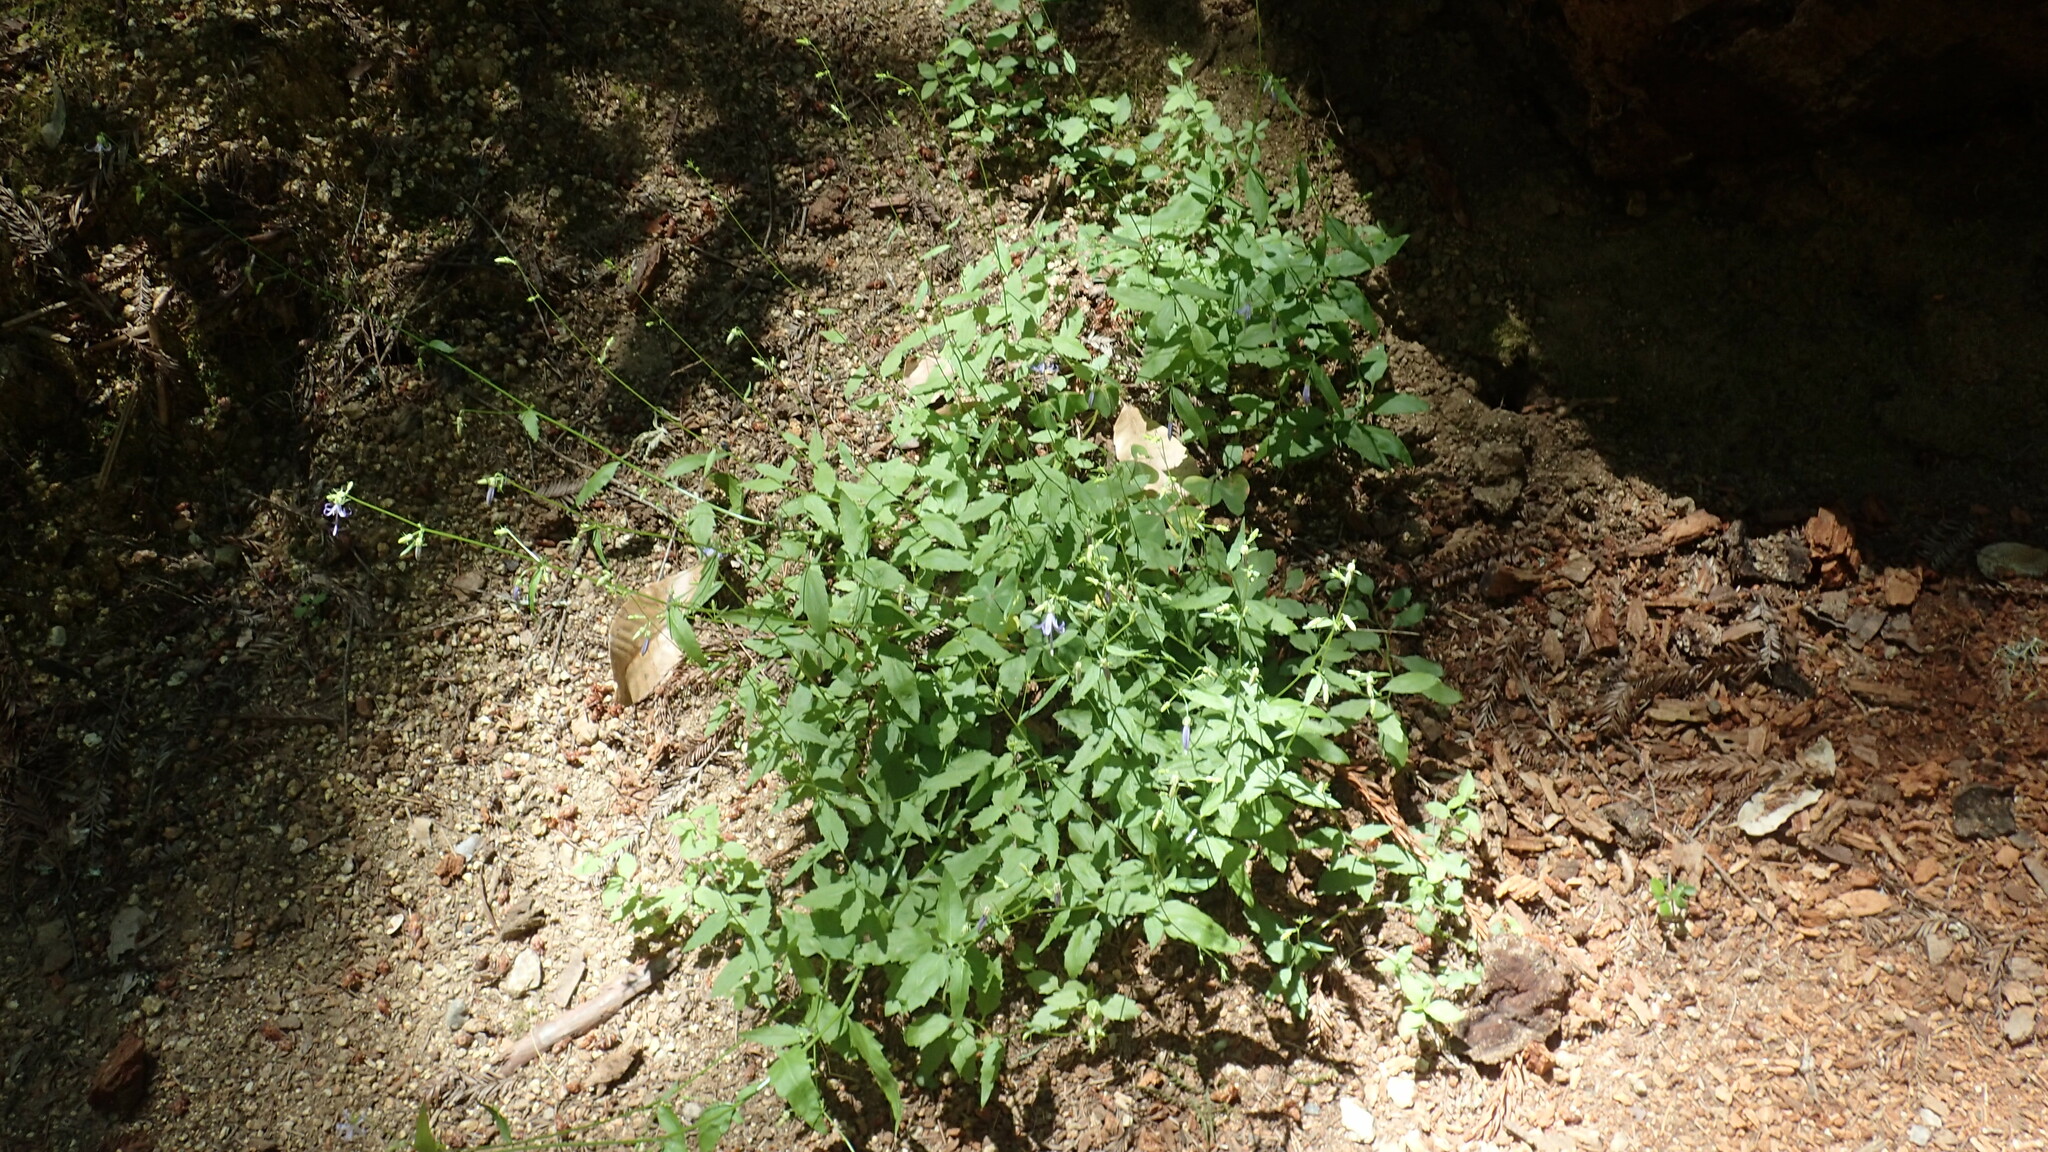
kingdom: Plantae
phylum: Tracheophyta
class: Magnoliopsida
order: Asterales
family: Campanulaceae
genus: Smithiastrum
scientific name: Smithiastrum prenanthoides
